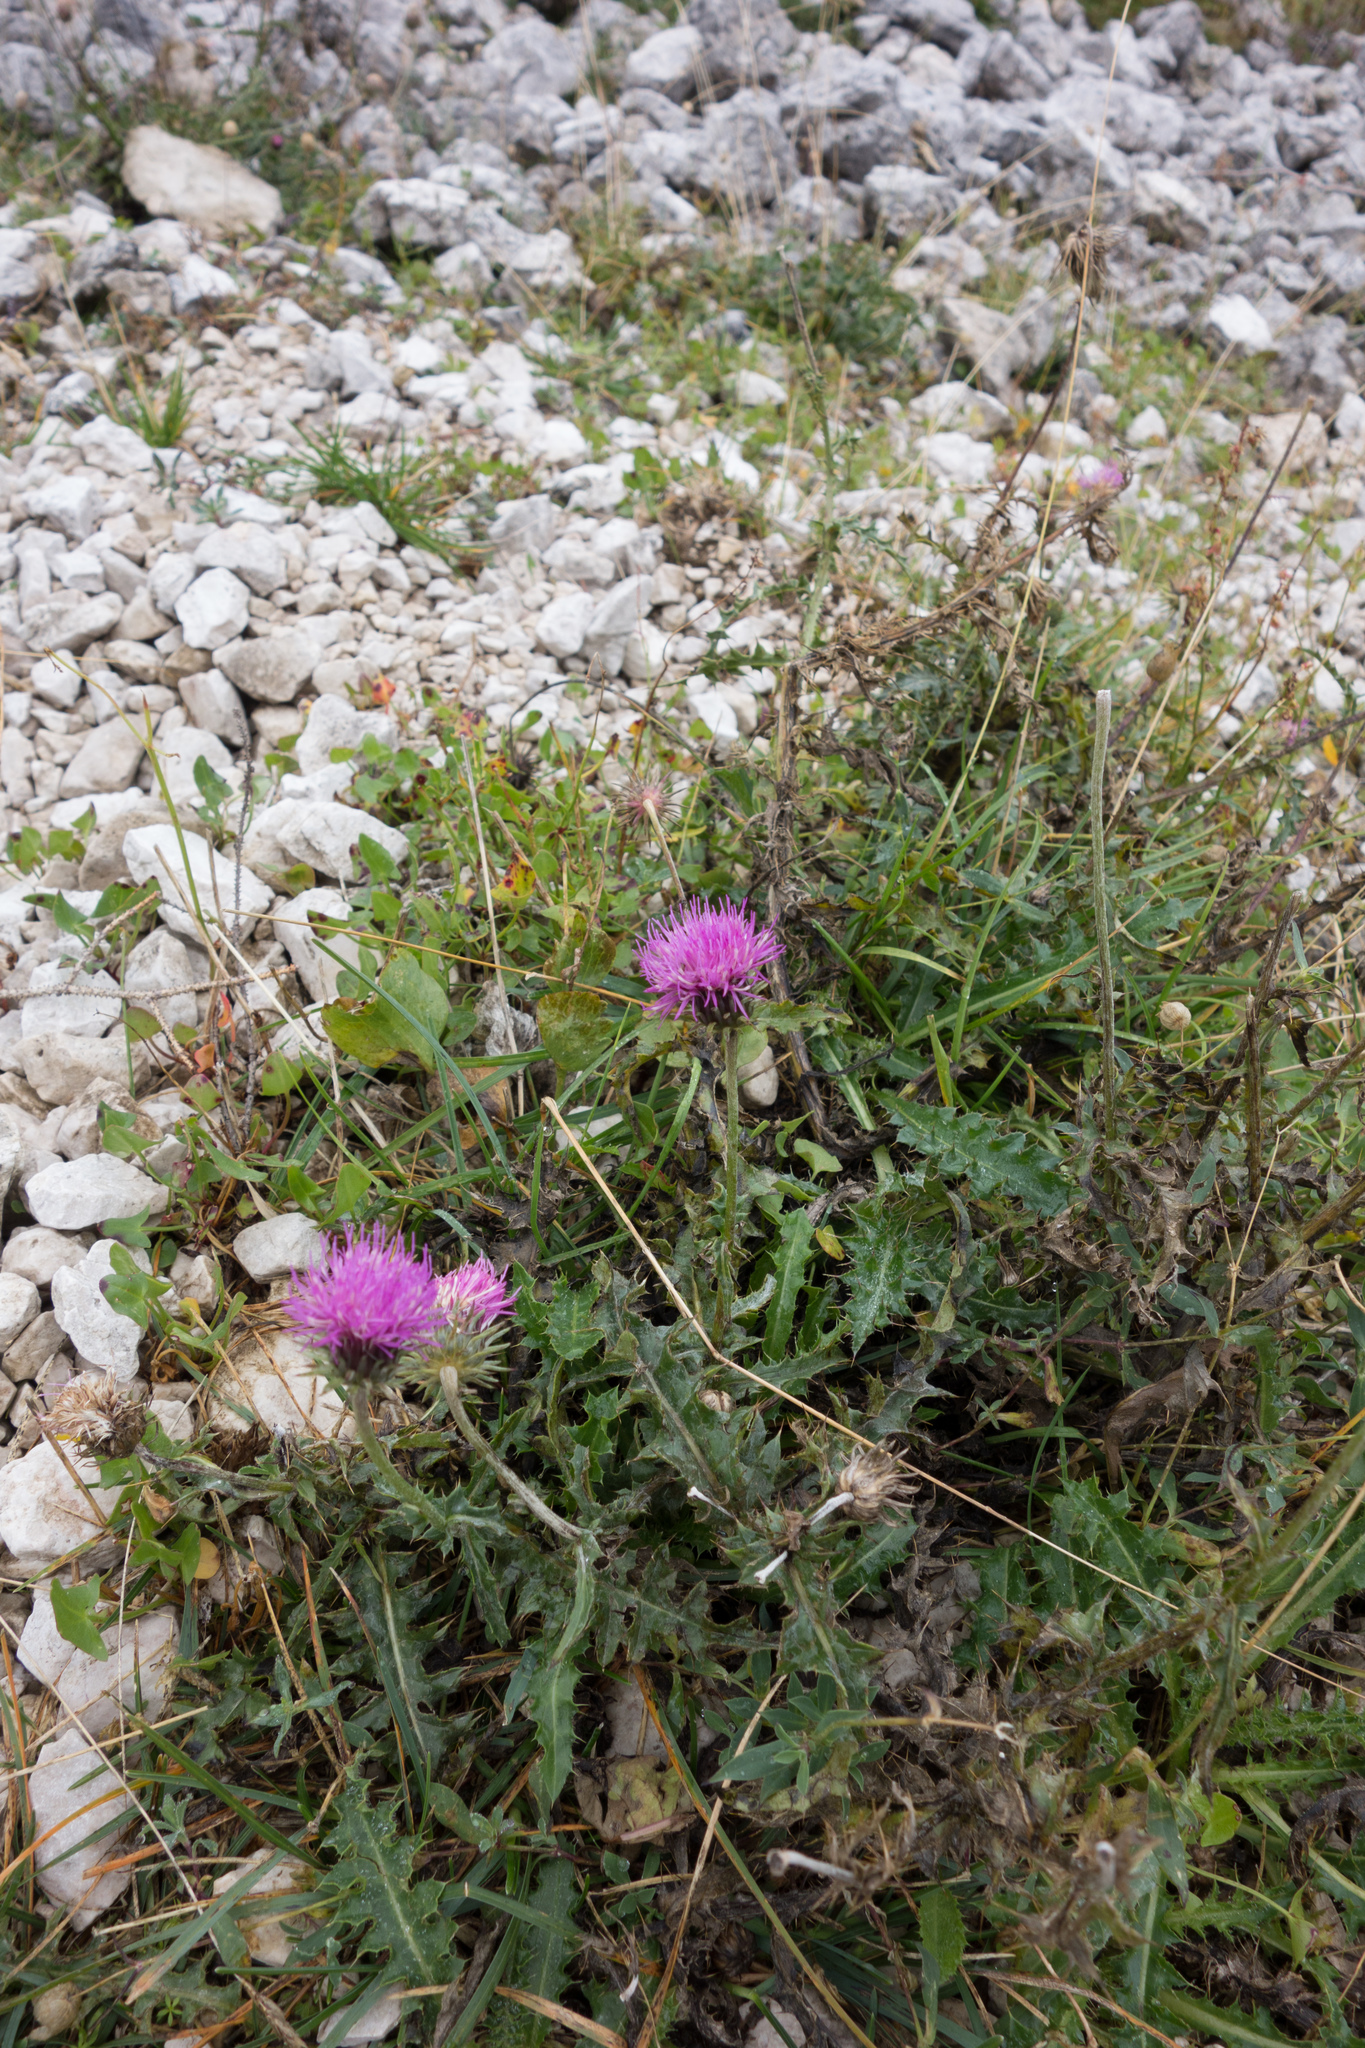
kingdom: Plantae
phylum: Tracheophyta
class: Magnoliopsida
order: Asterales
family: Asteraceae
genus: Carduus
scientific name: Carduus defloratus
